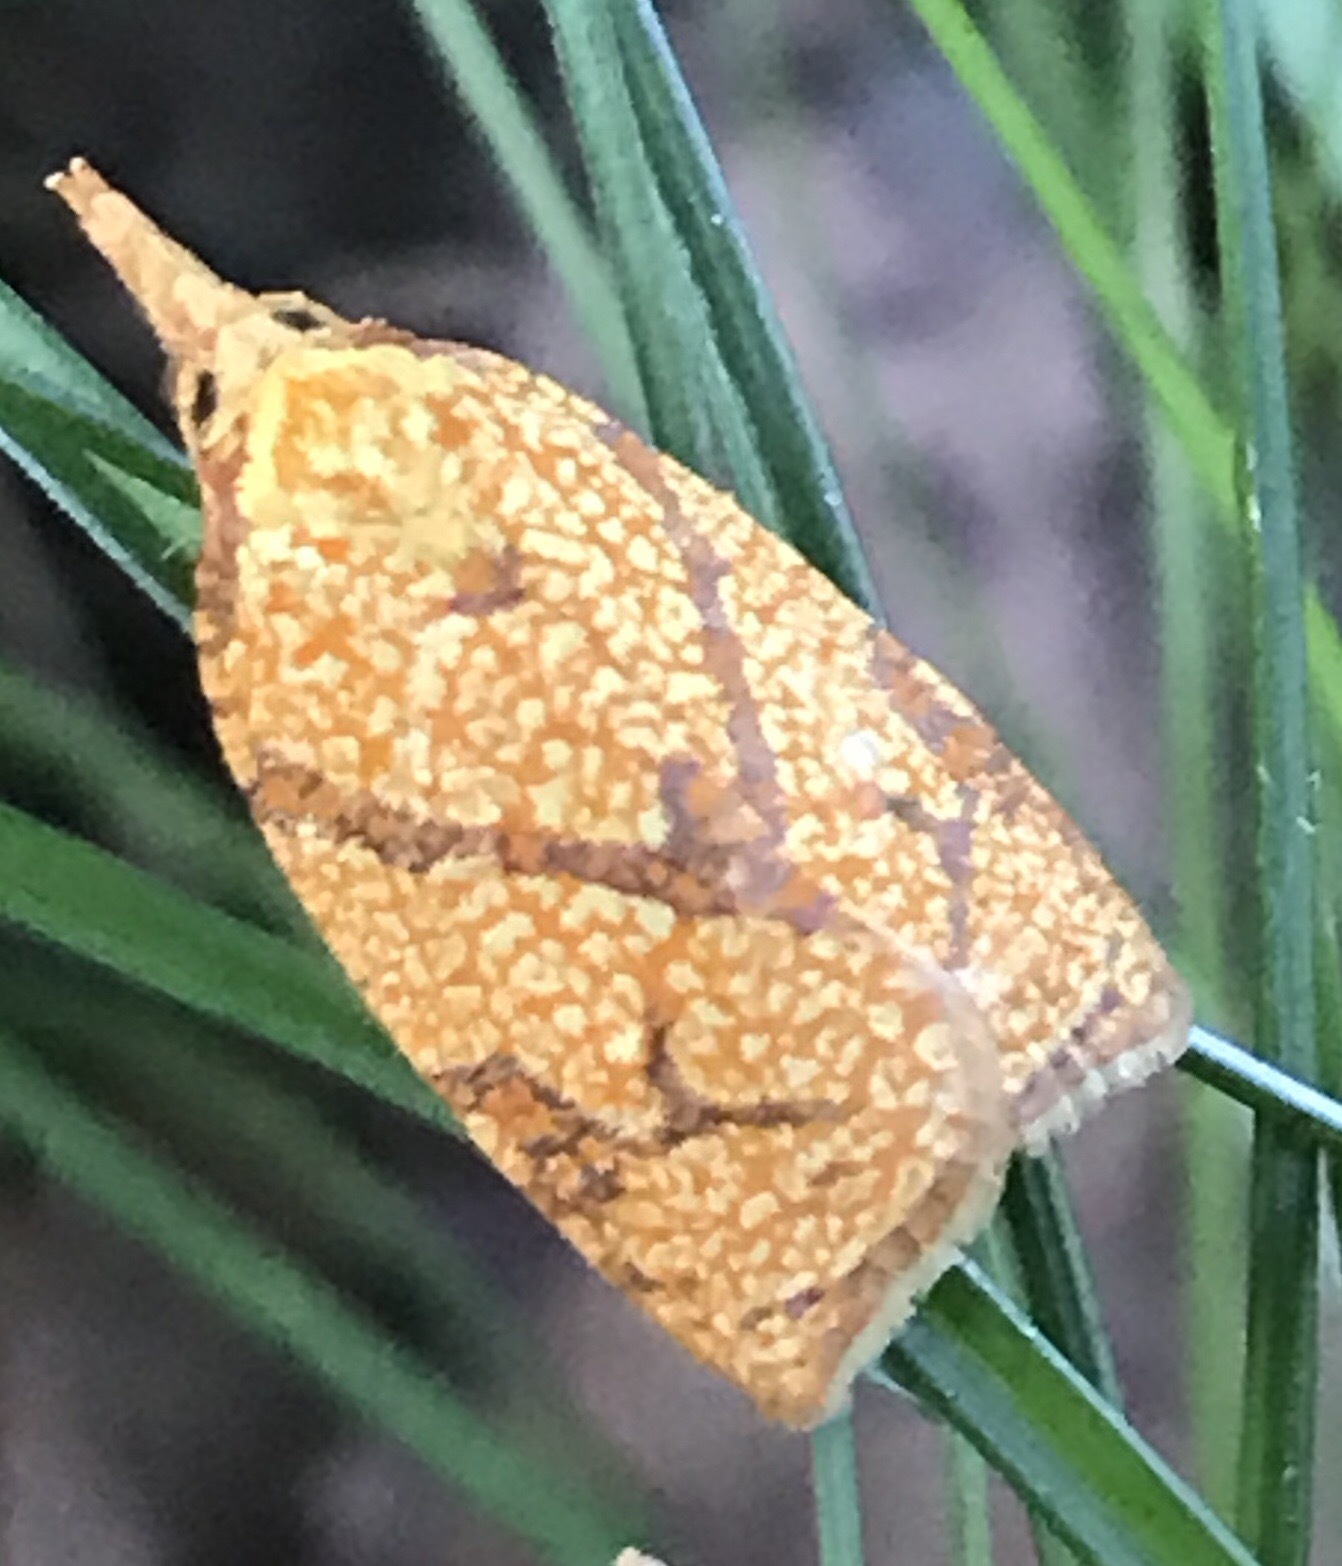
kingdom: Animalia
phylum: Arthropoda
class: Insecta
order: Lepidoptera
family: Tortricidae
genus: Cenopis
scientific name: Cenopis reticulatana
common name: Reticulated fruitworm moth
